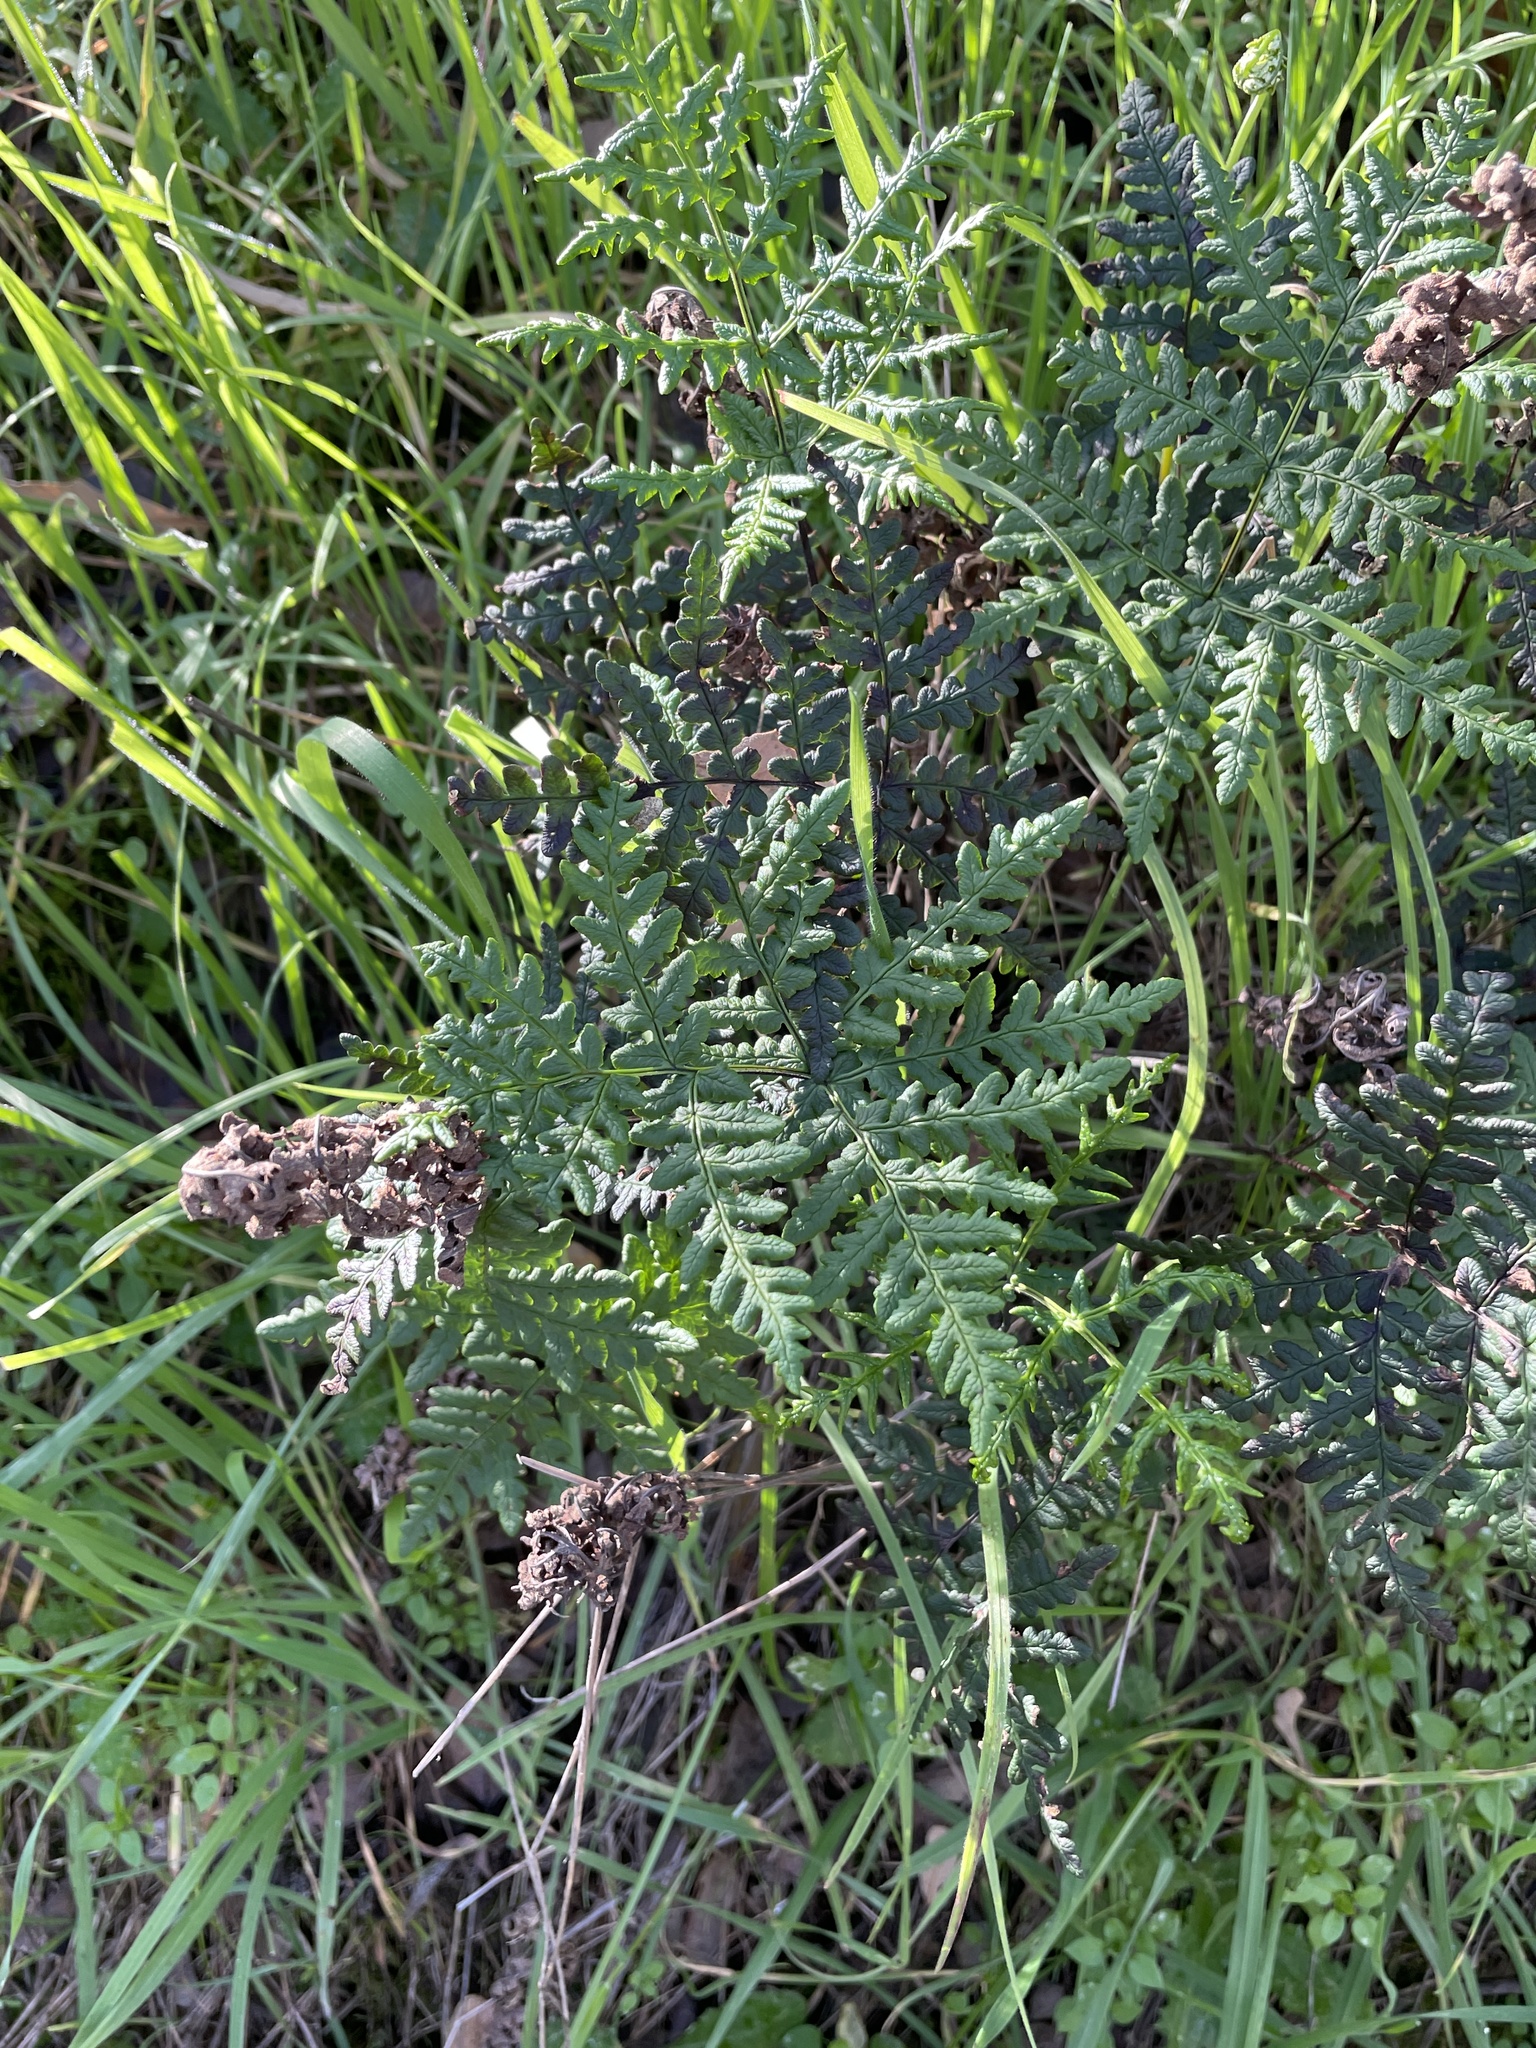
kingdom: Plantae
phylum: Tracheophyta
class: Polypodiopsida
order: Polypodiales
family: Pteridaceae
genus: Pentagramma
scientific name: Pentagramma triangularis
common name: Gold fern
